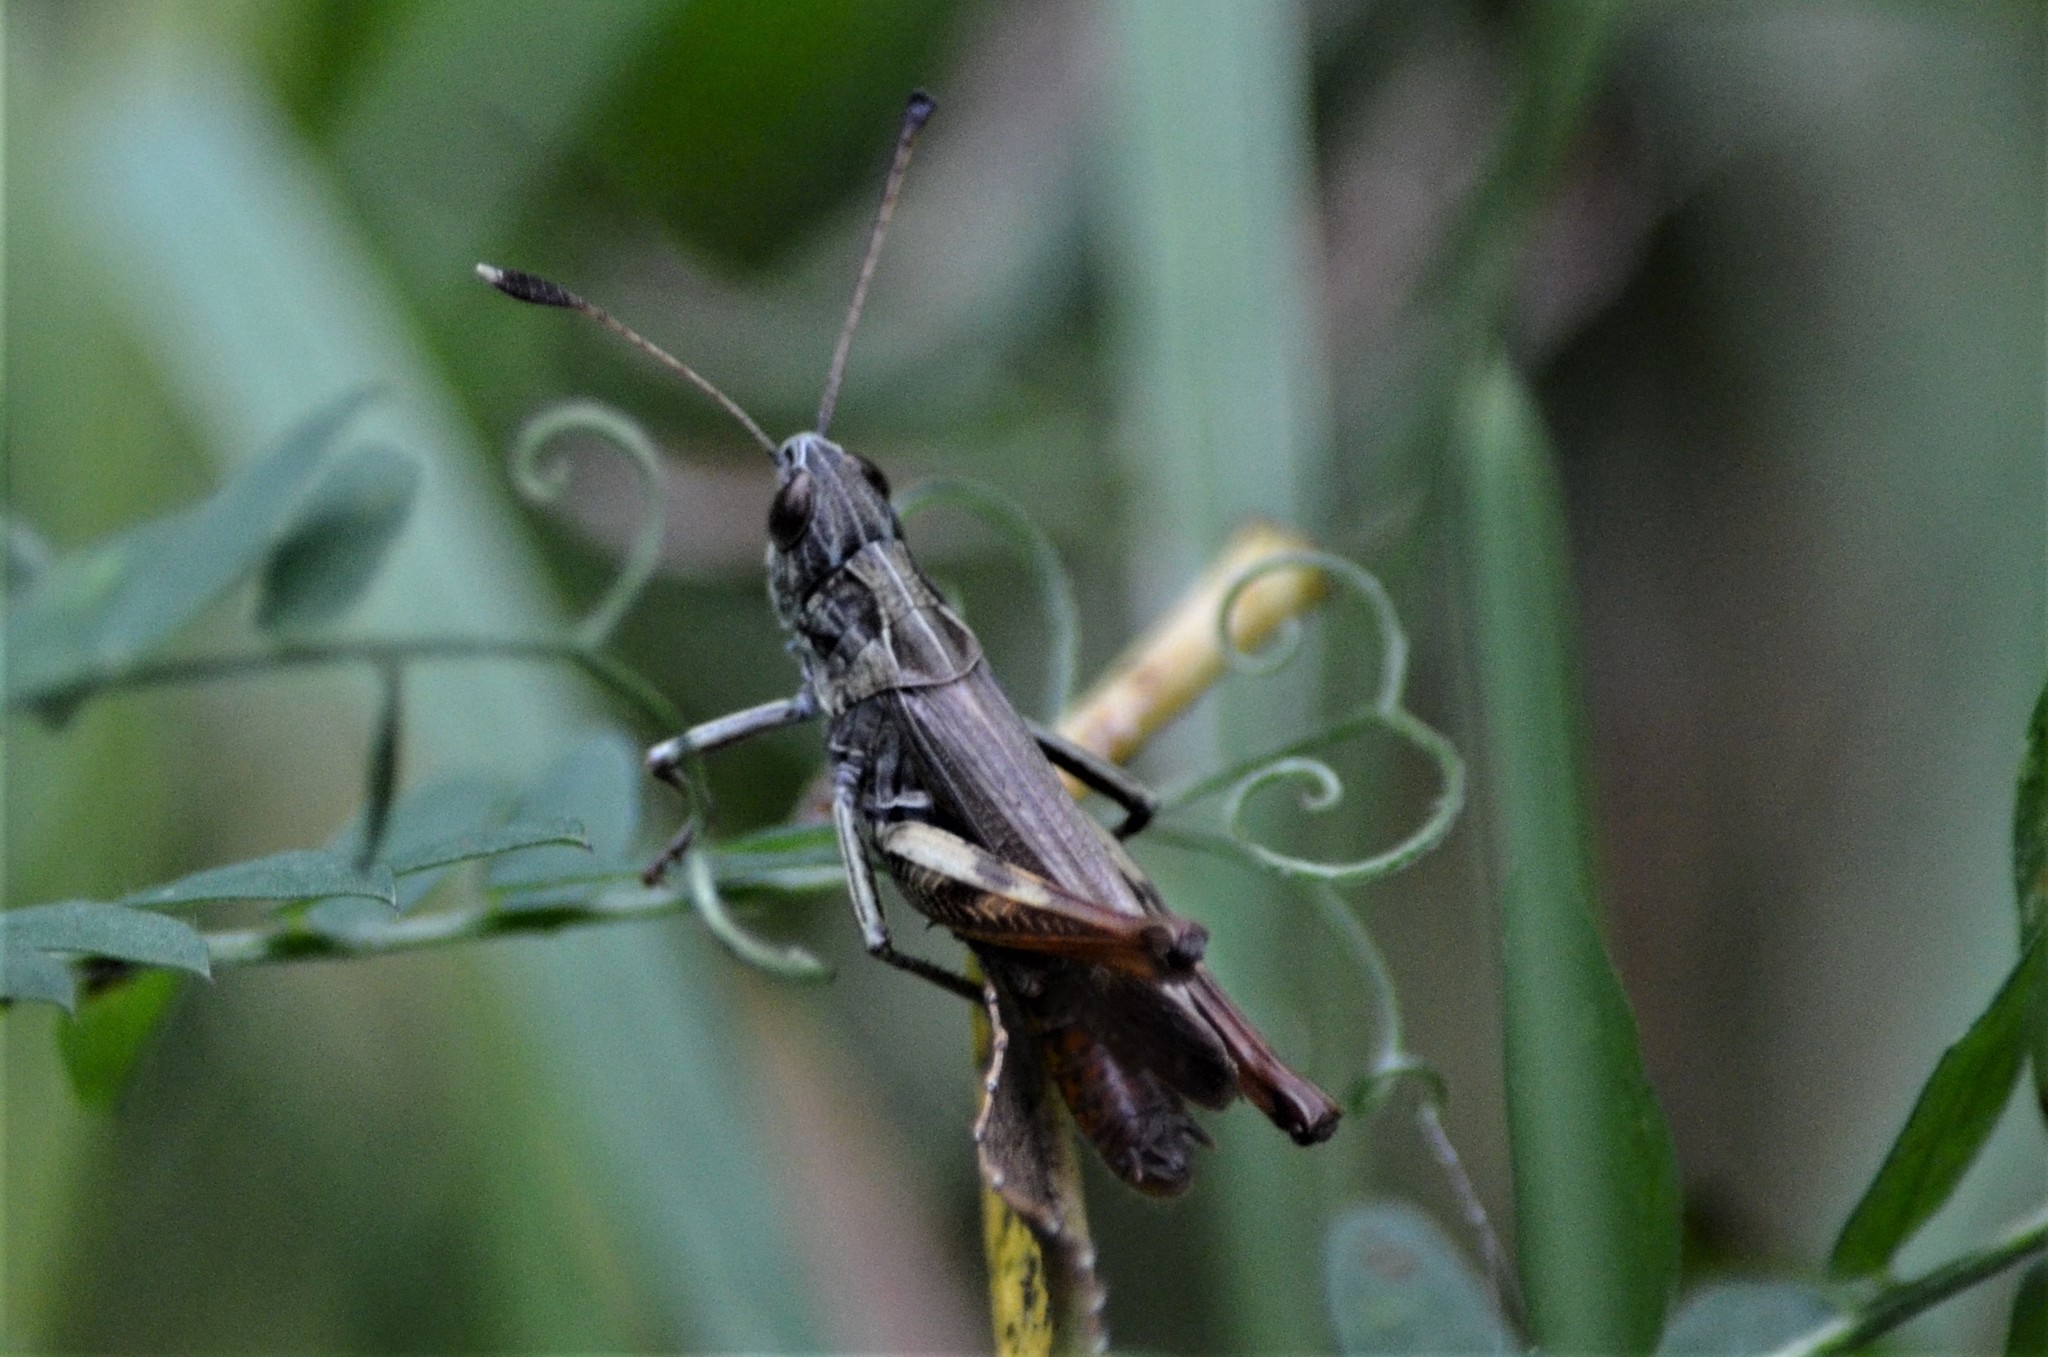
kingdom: Animalia
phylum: Arthropoda
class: Insecta
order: Orthoptera
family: Acrididae
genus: Gomphocerippus
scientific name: Gomphocerippus rufus
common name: Rufous grasshopper
